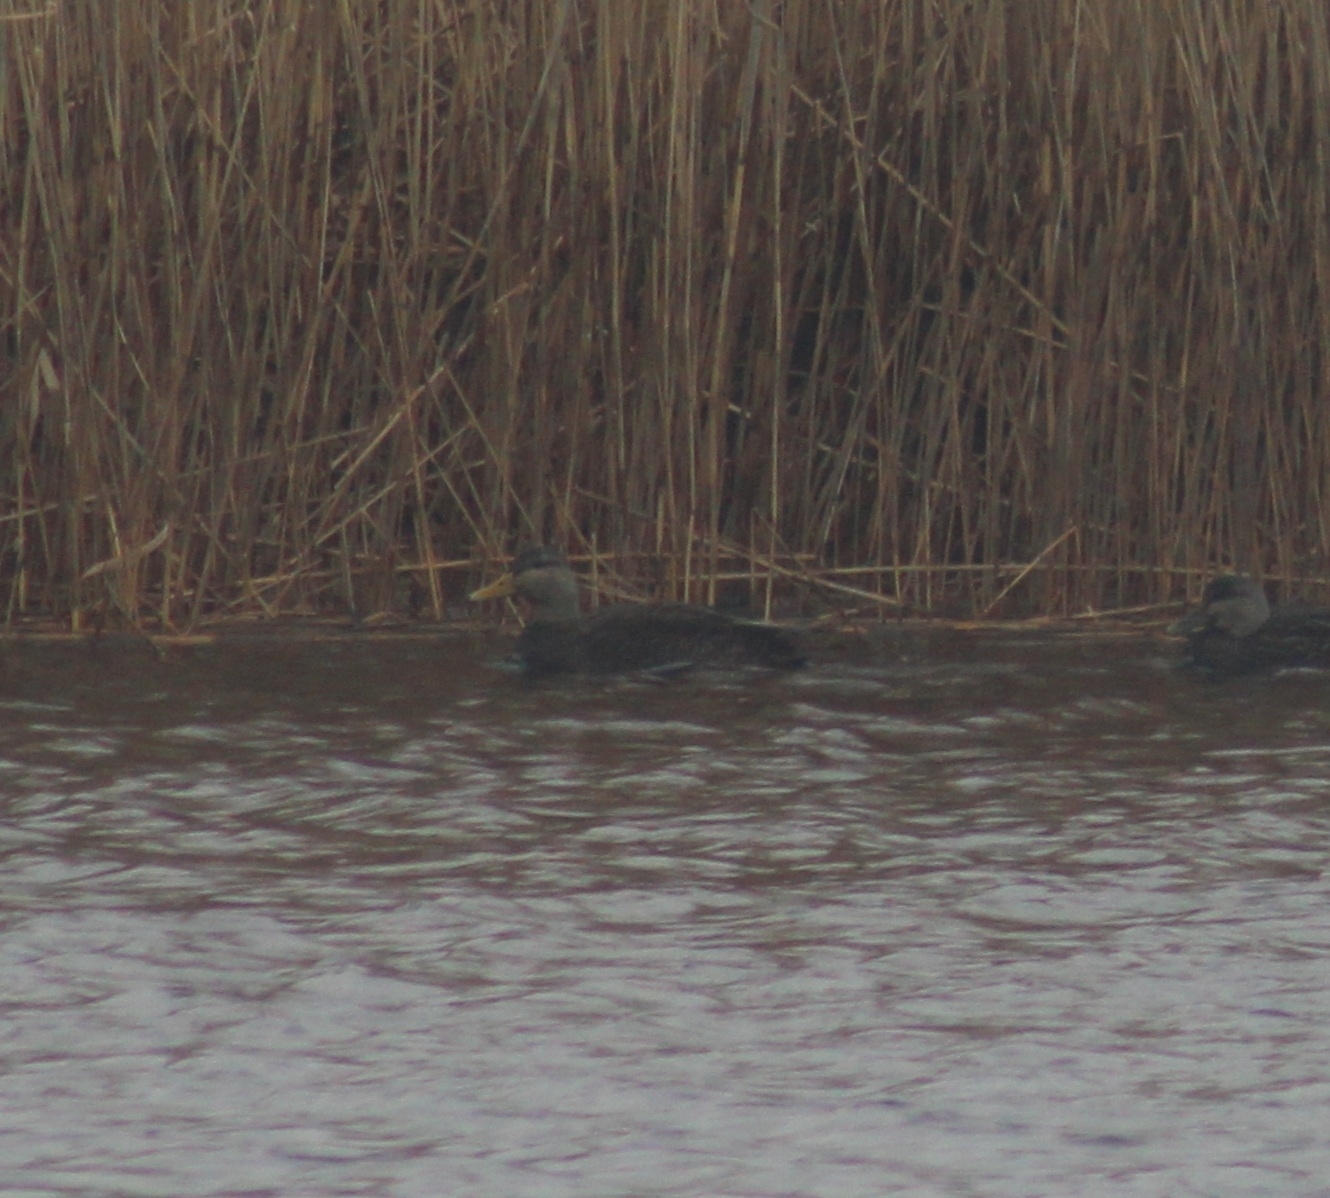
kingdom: Animalia
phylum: Chordata
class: Aves
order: Anseriformes
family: Anatidae
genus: Anas
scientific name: Anas rubripes
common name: American black duck
